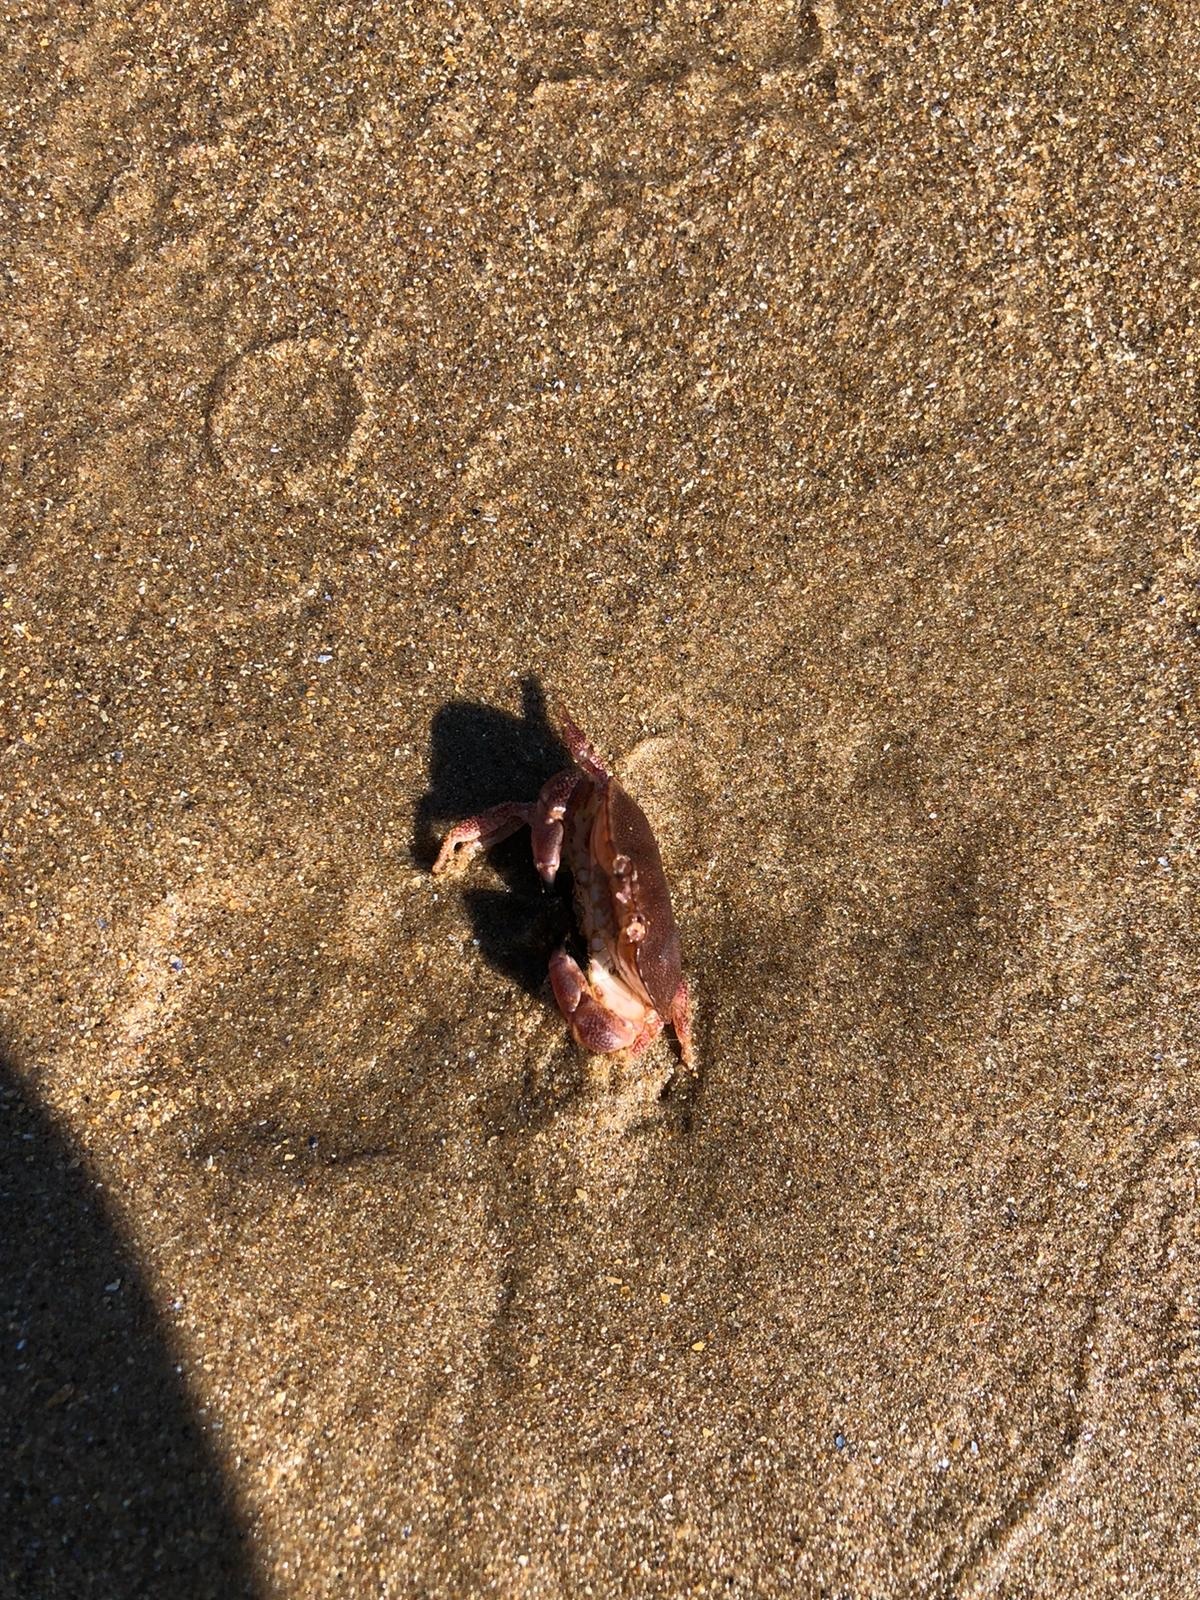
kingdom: Animalia
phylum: Arthropoda
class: Malacostraca
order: Decapoda
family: Cancridae
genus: Cancer
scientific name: Cancer pagurus
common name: Edible crab
